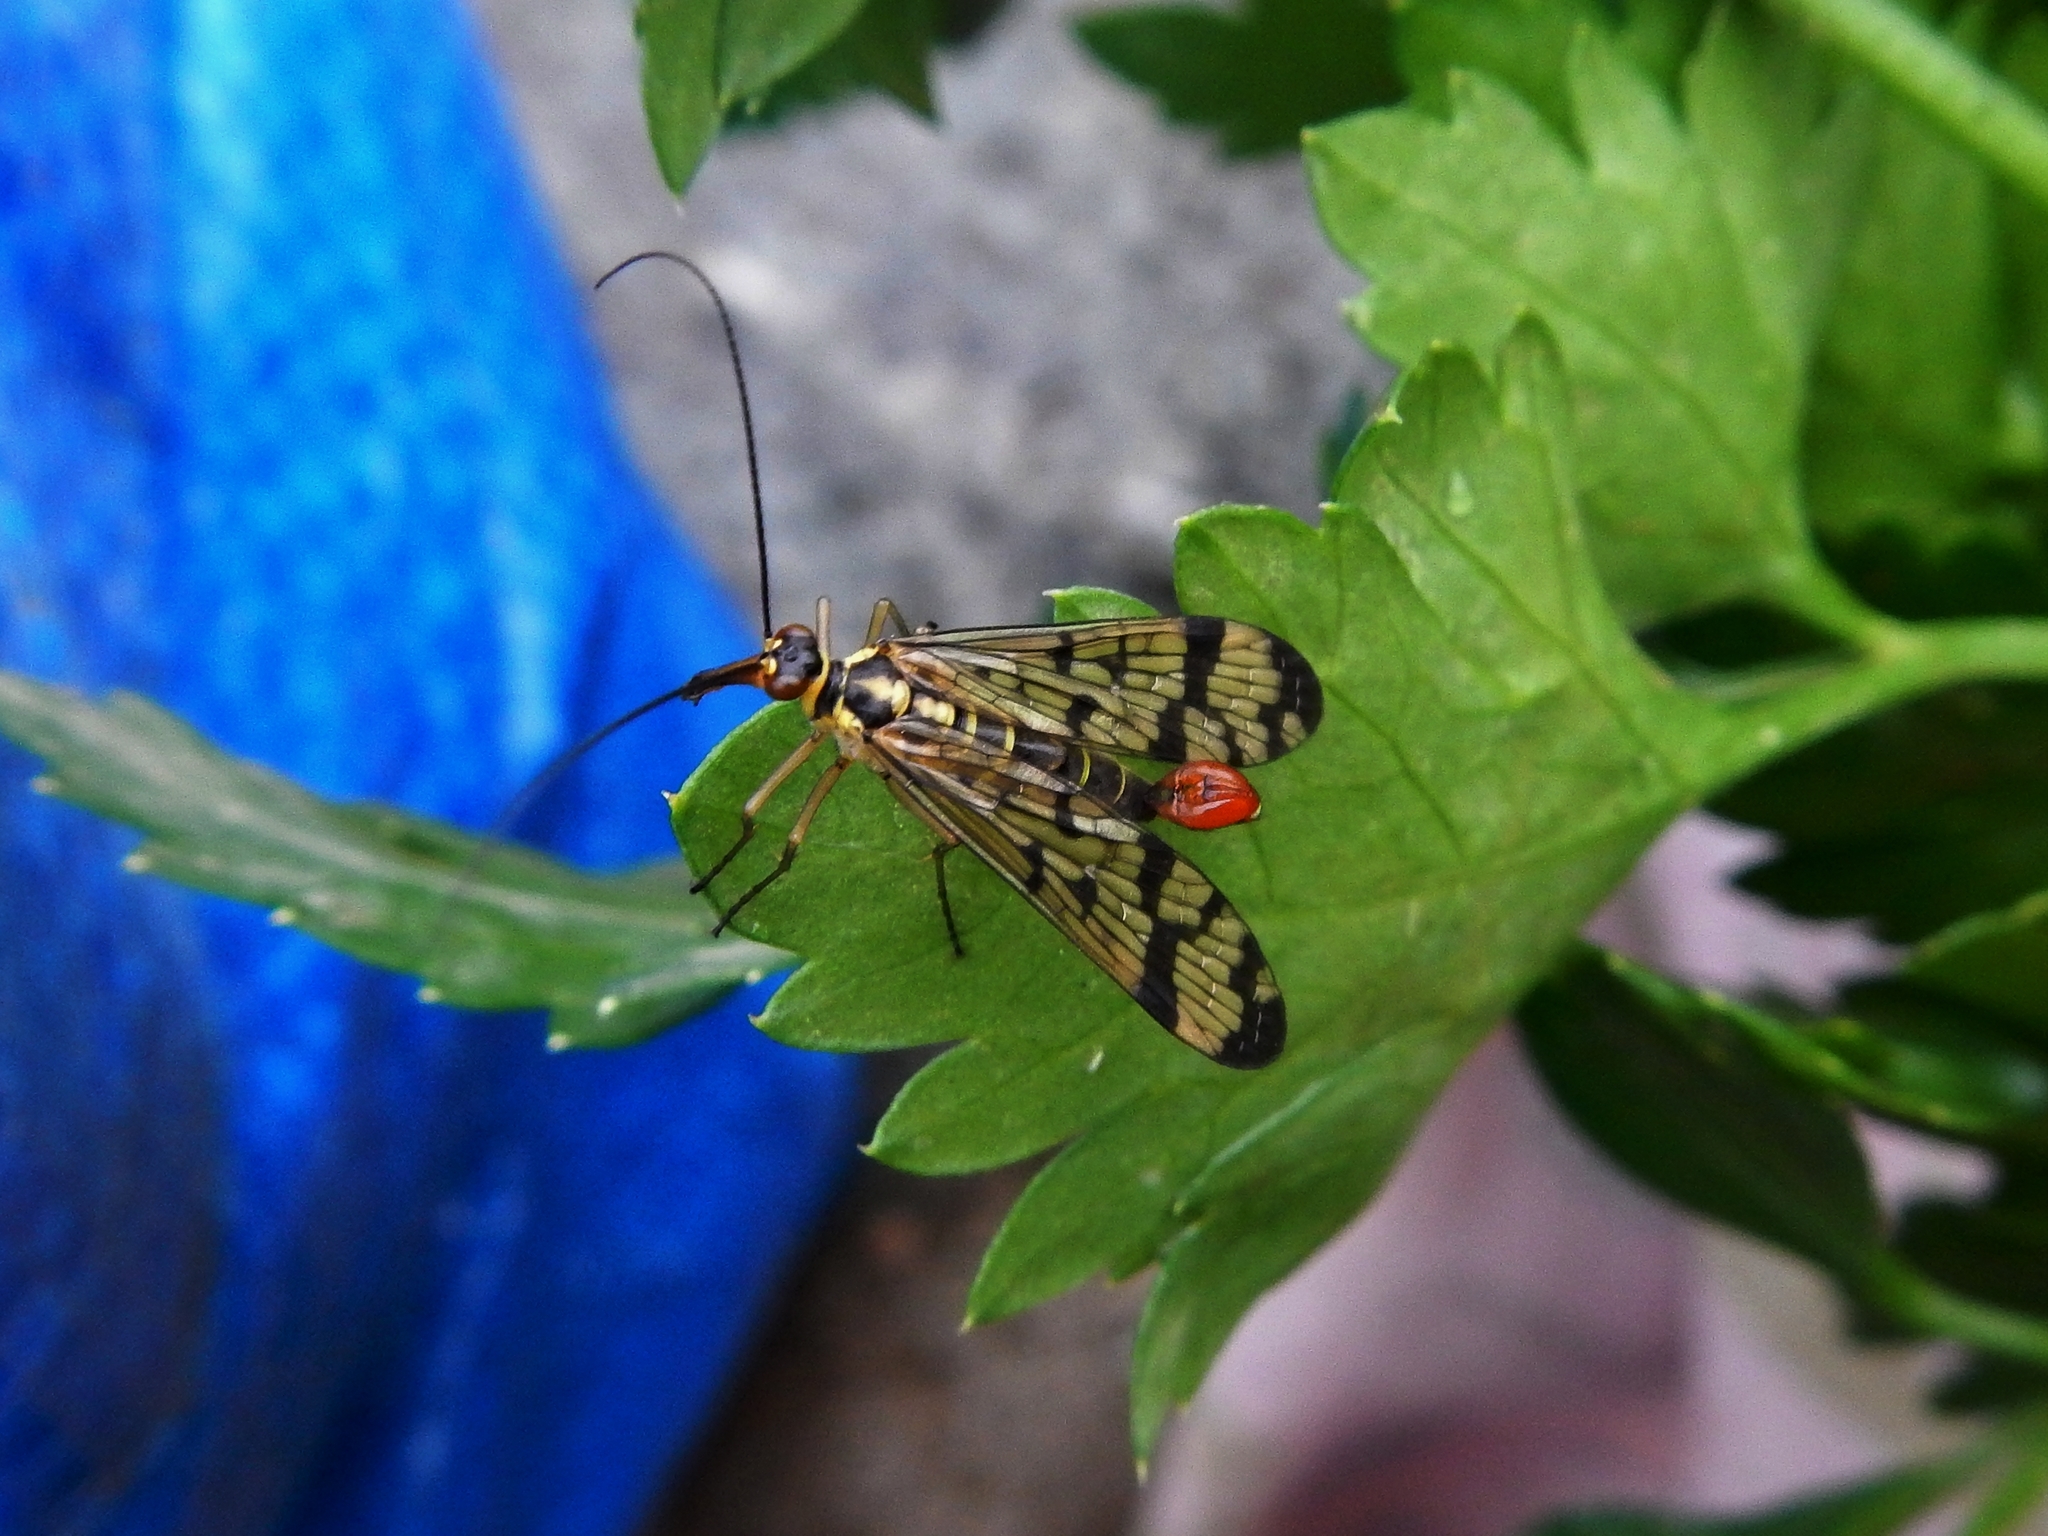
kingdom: Animalia
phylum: Arthropoda
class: Insecta
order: Mecoptera
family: Panorpidae
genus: Panorpa
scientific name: Panorpa germanica
